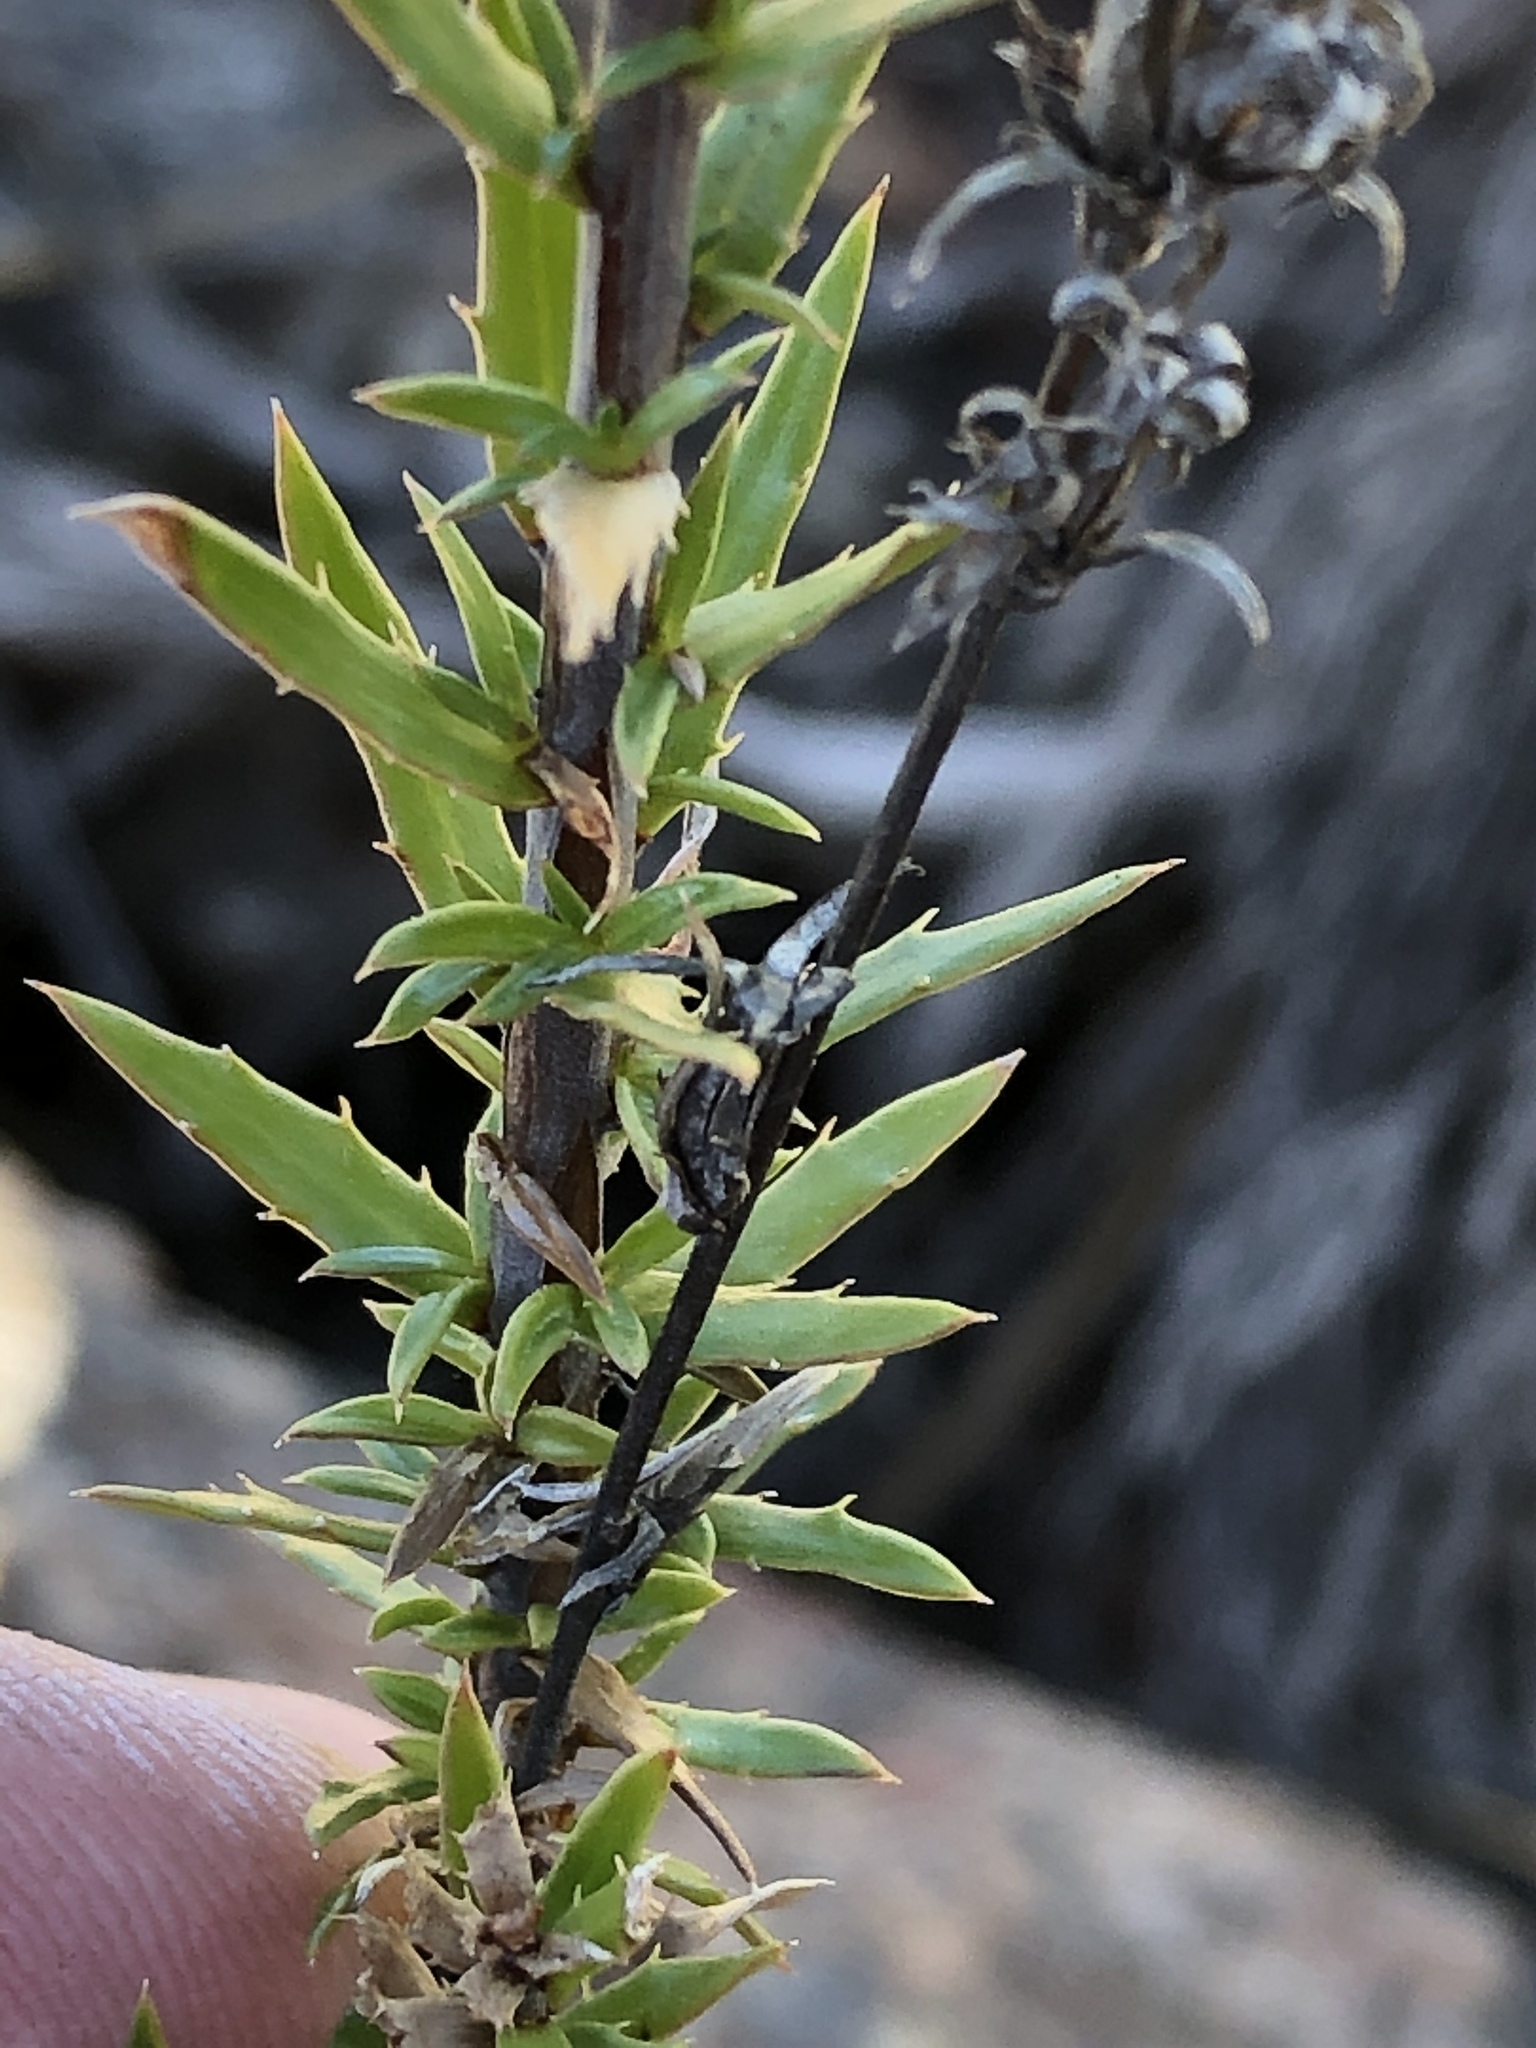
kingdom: Plantae
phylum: Tracheophyta
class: Magnoliopsida
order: Asterales
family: Campanulaceae
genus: Prismatocarpus
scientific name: Prismatocarpus candolleanus
